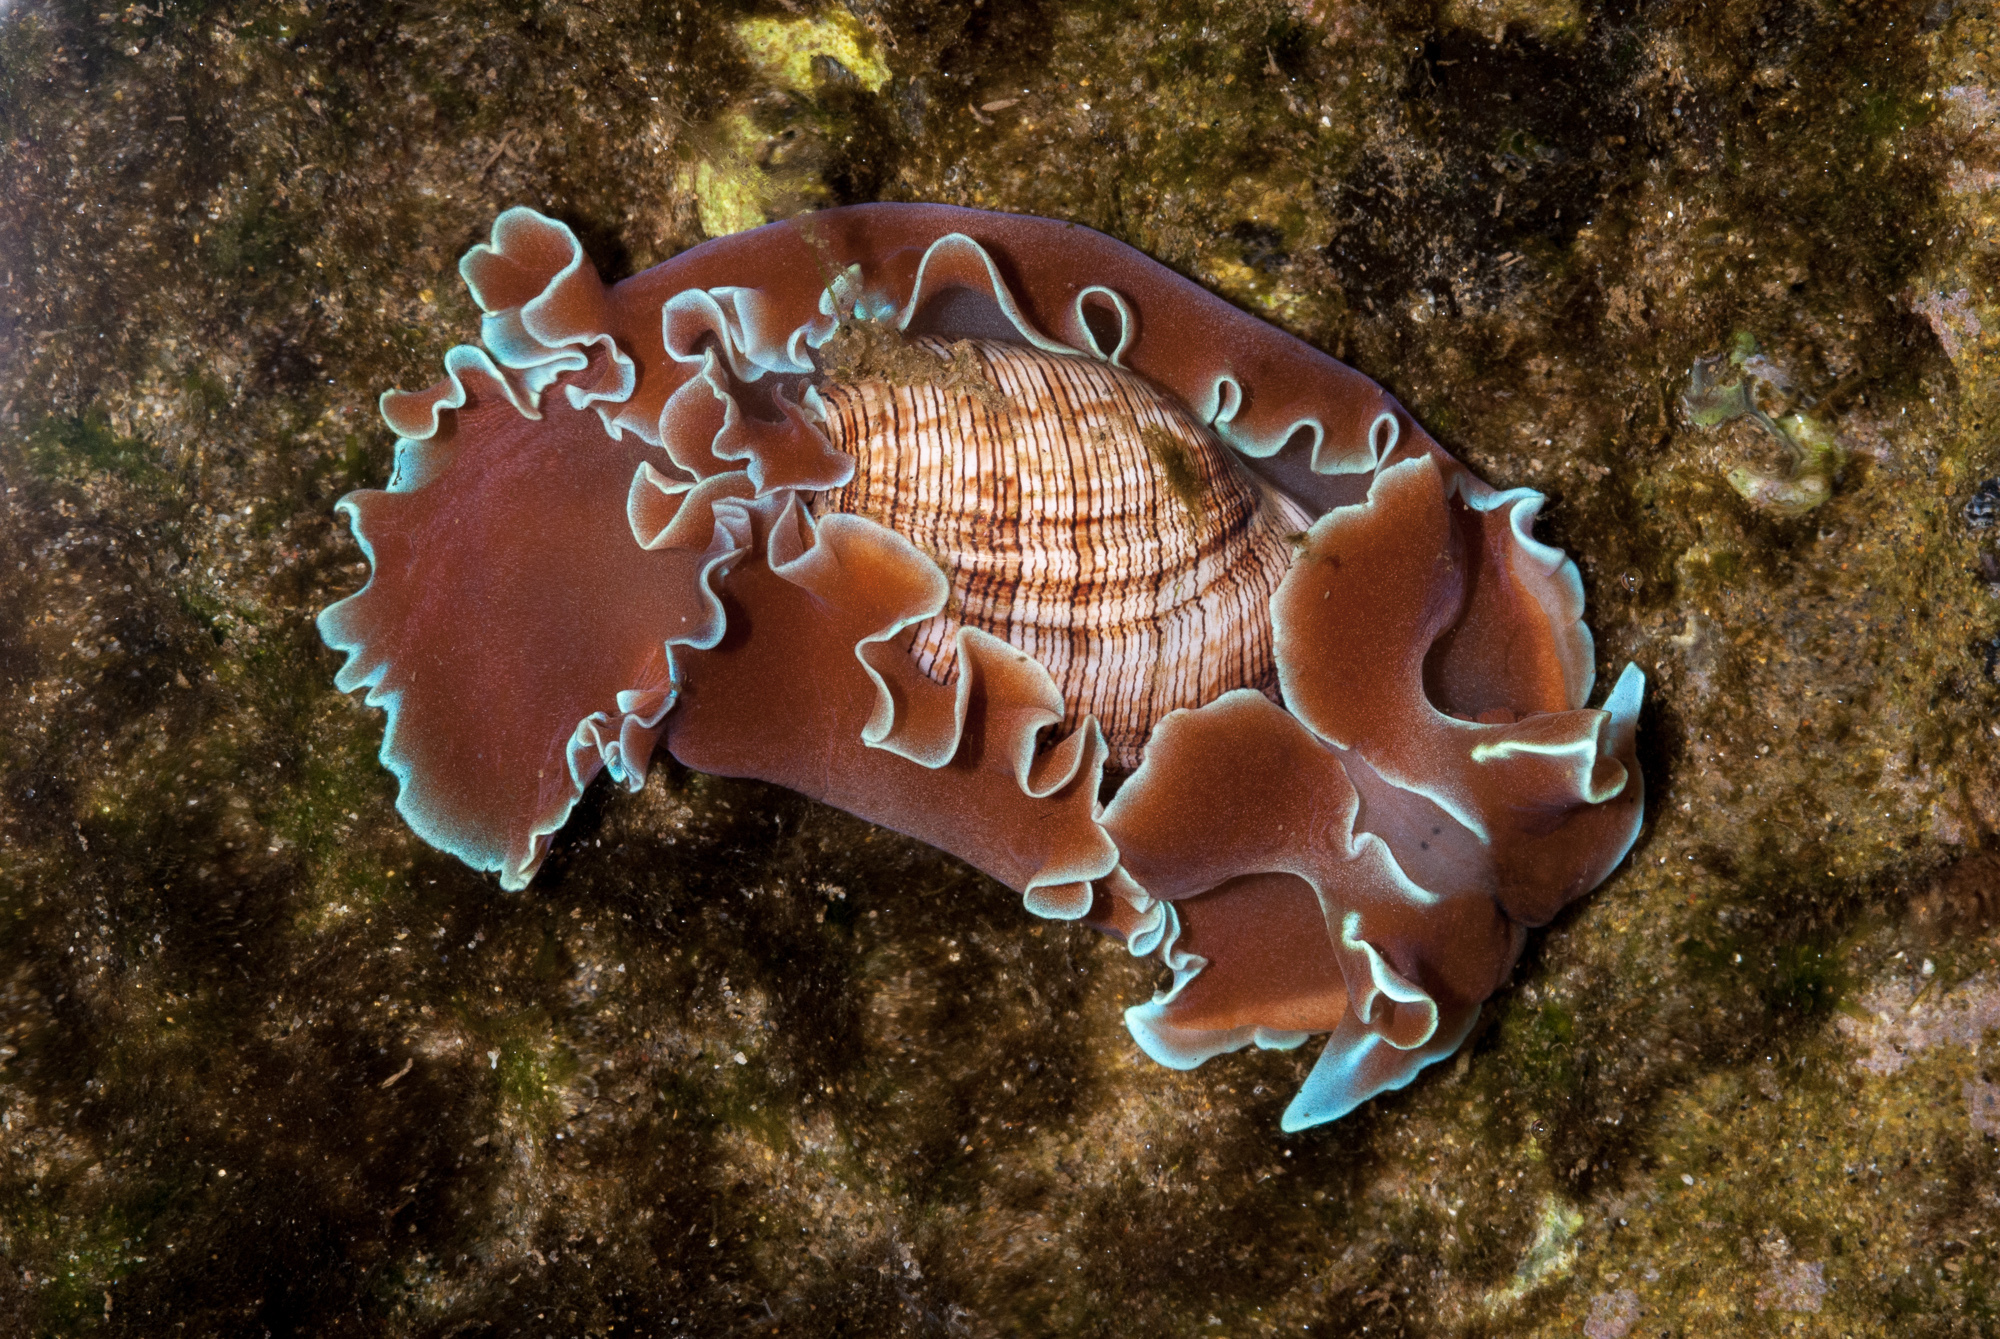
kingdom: Animalia
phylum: Mollusca
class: Gastropoda
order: Cephalaspidea
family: Aplustridae
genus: Hydatina
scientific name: Hydatina physis
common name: Brown-line paperbubble
